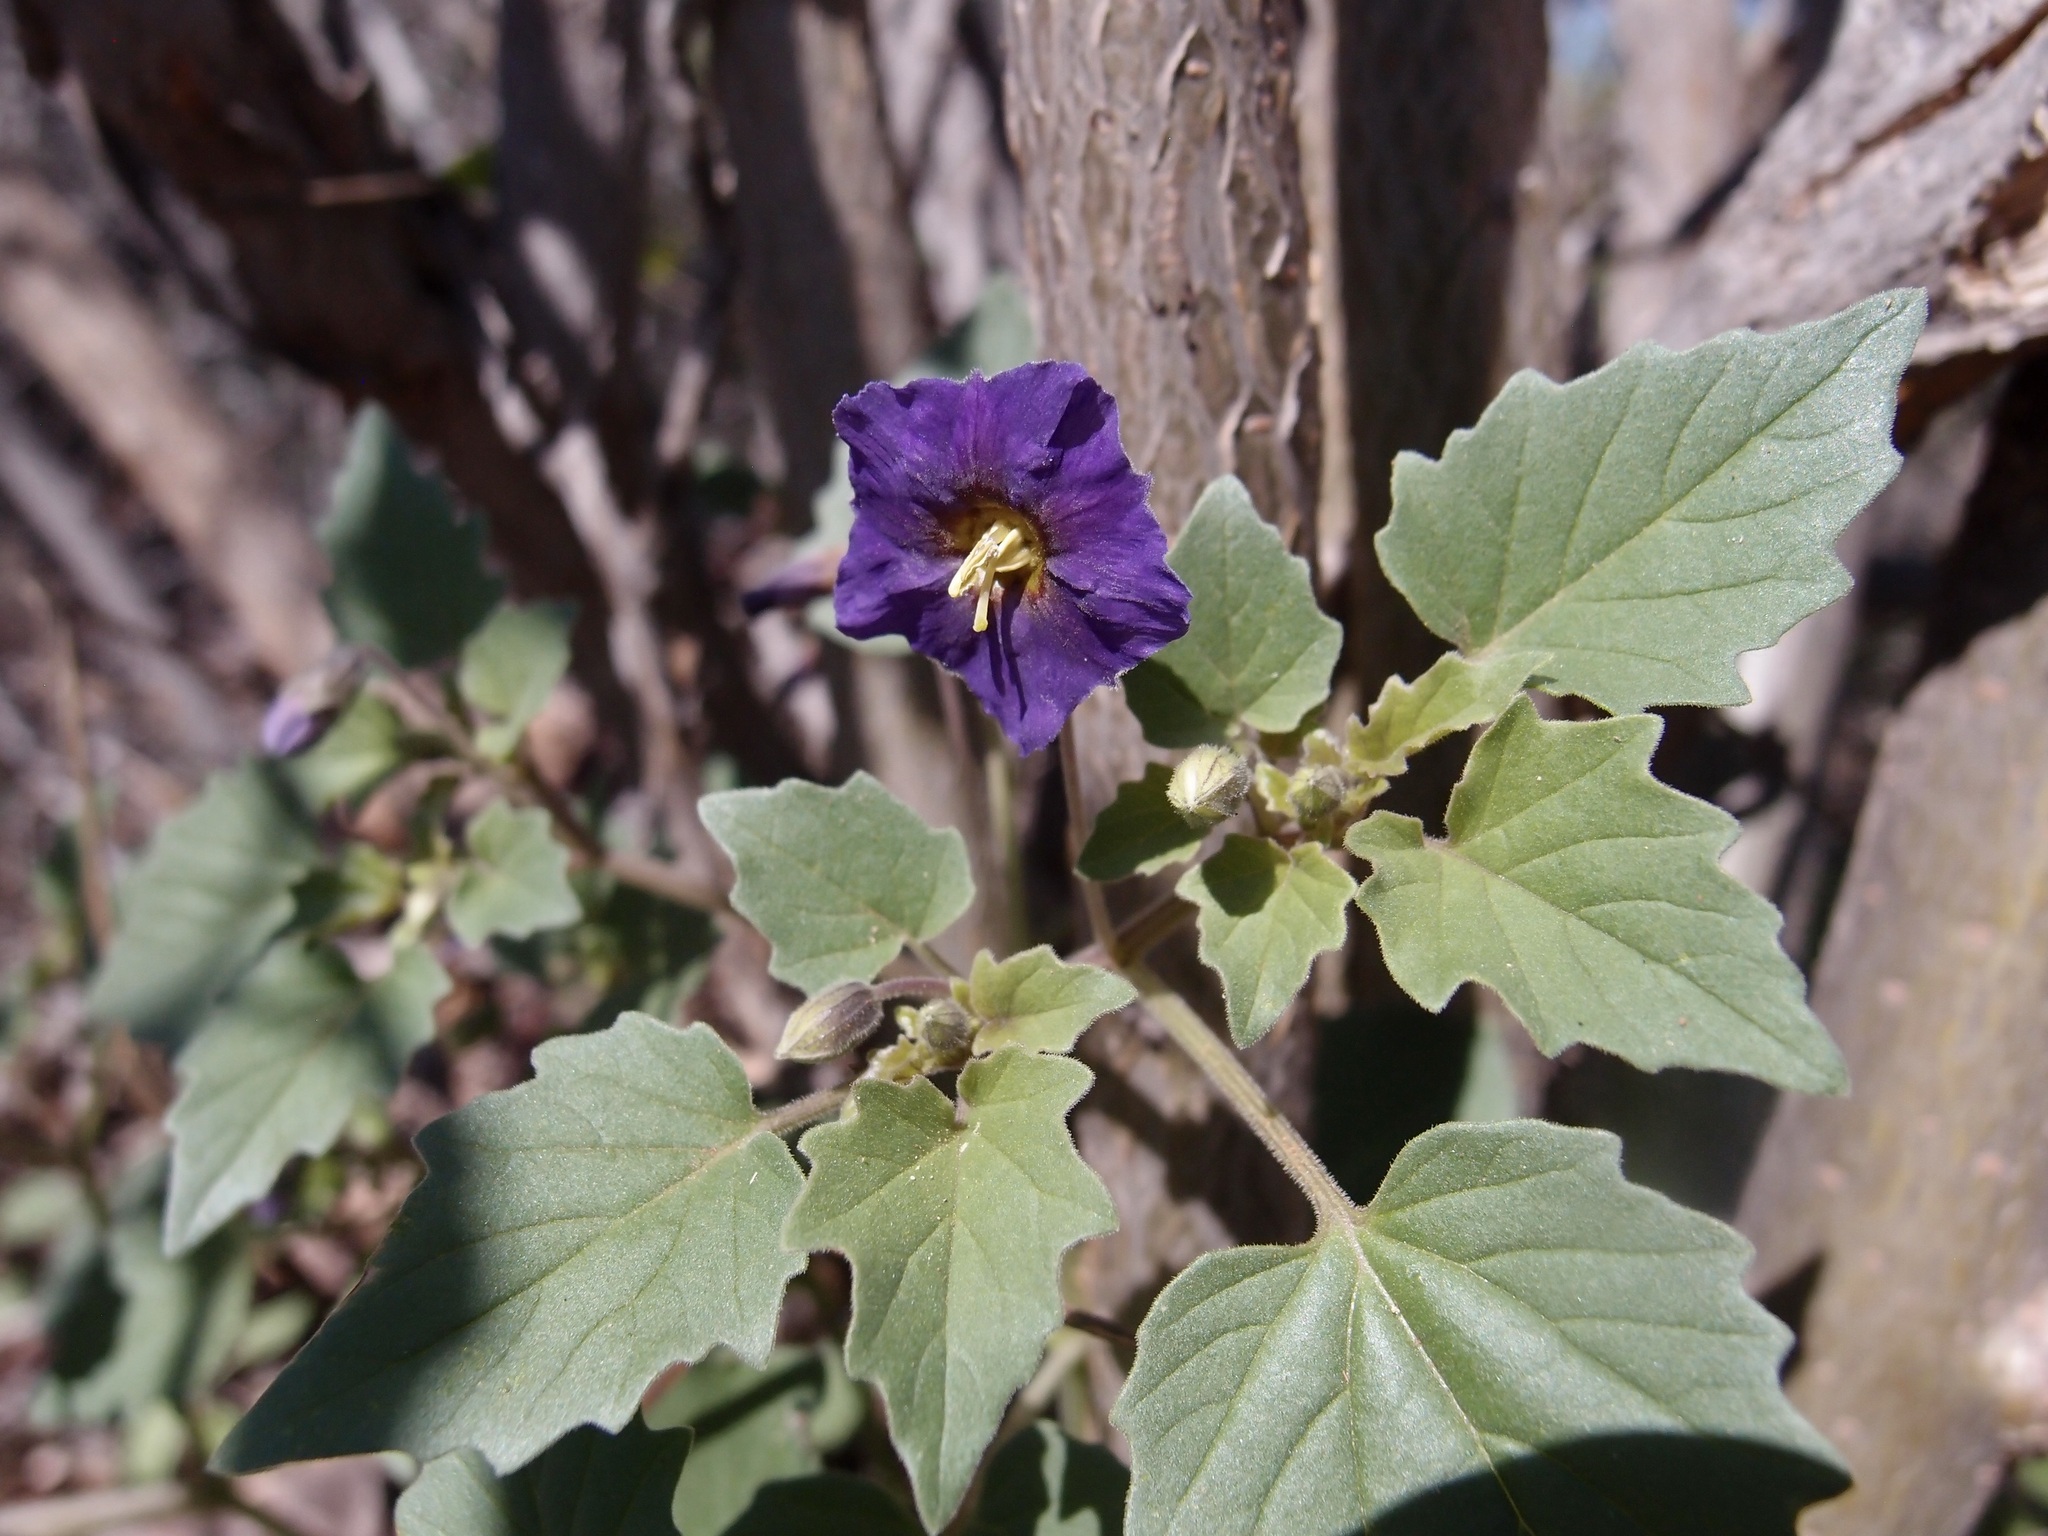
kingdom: Plantae
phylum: Tracheophyta
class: Magnoliopsida
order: Solanales
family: Solanaceae
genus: Physalis
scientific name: Physalis purpurea
